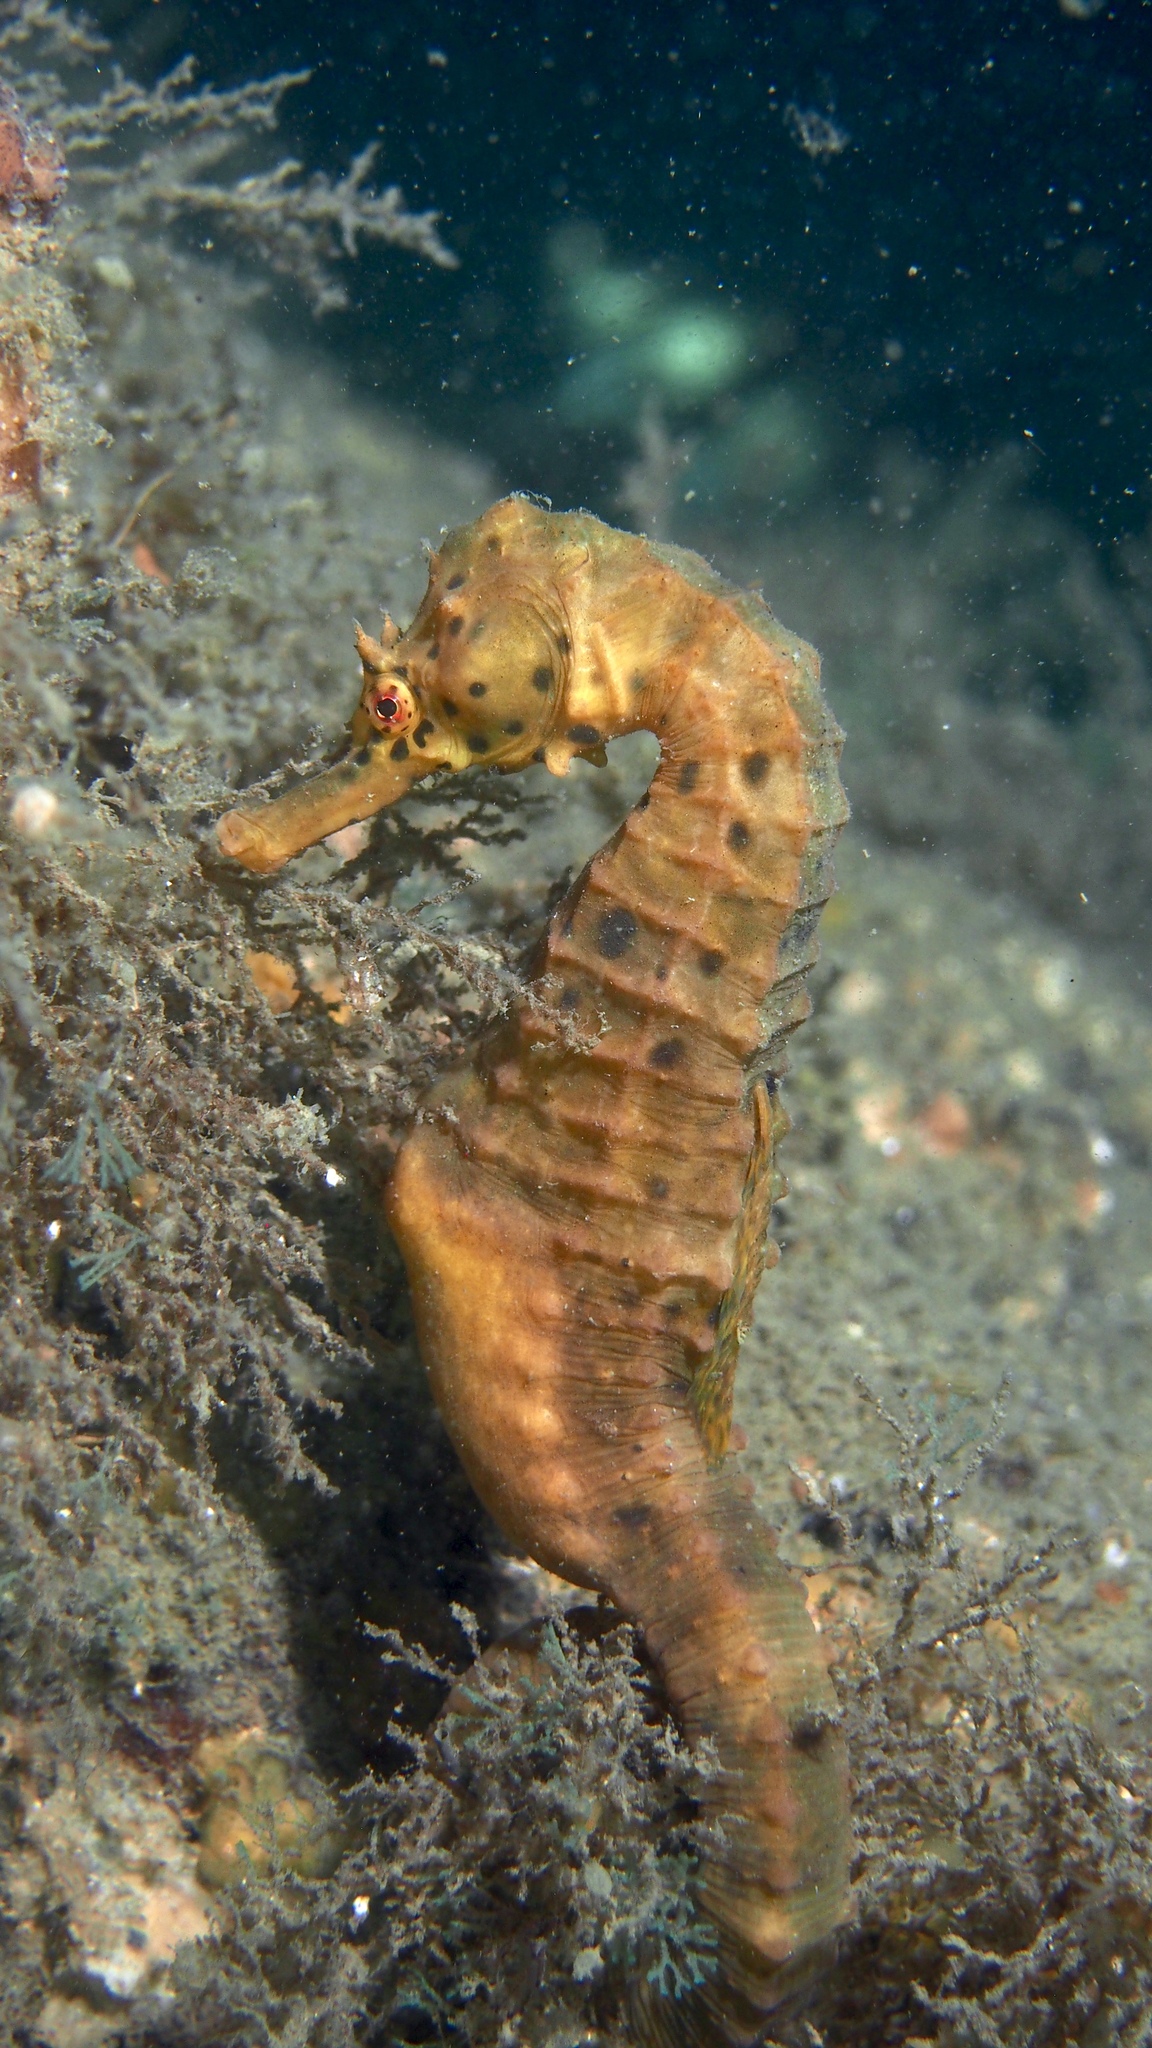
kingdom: Animalia
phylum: Chordata
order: Syngnathiformes
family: Syngnathidae
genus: Hippocampus
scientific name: Hippocampus abdominalis
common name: Big-belly seahorse
